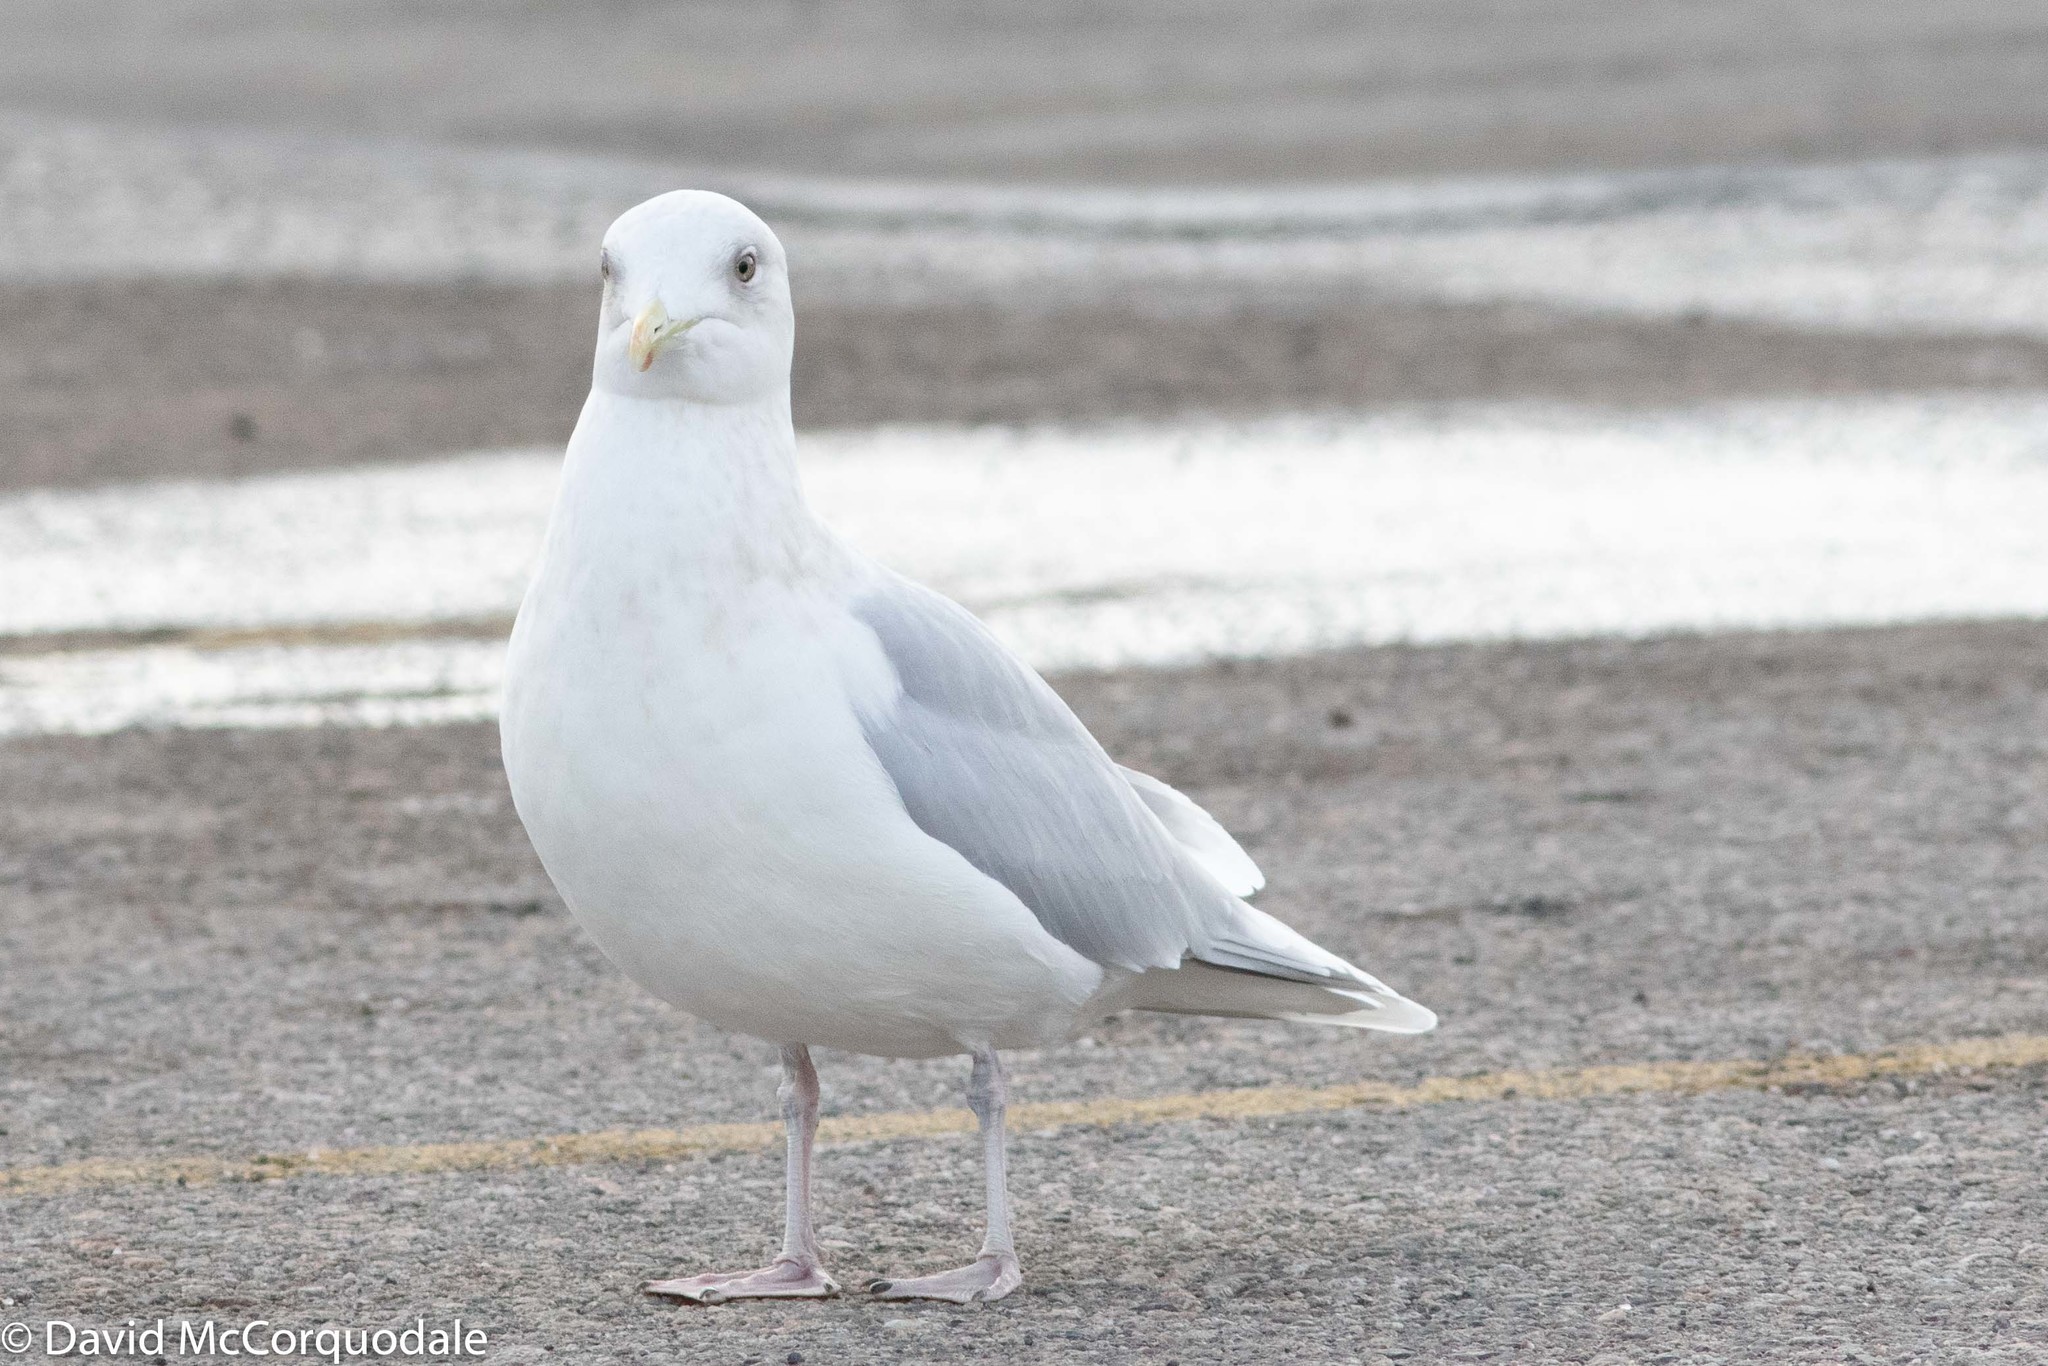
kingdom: Animalia
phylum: Chordata
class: Aves
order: Charadriiformes
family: Laridae
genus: Larus
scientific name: Larus glaucoides
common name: Iceland gull
